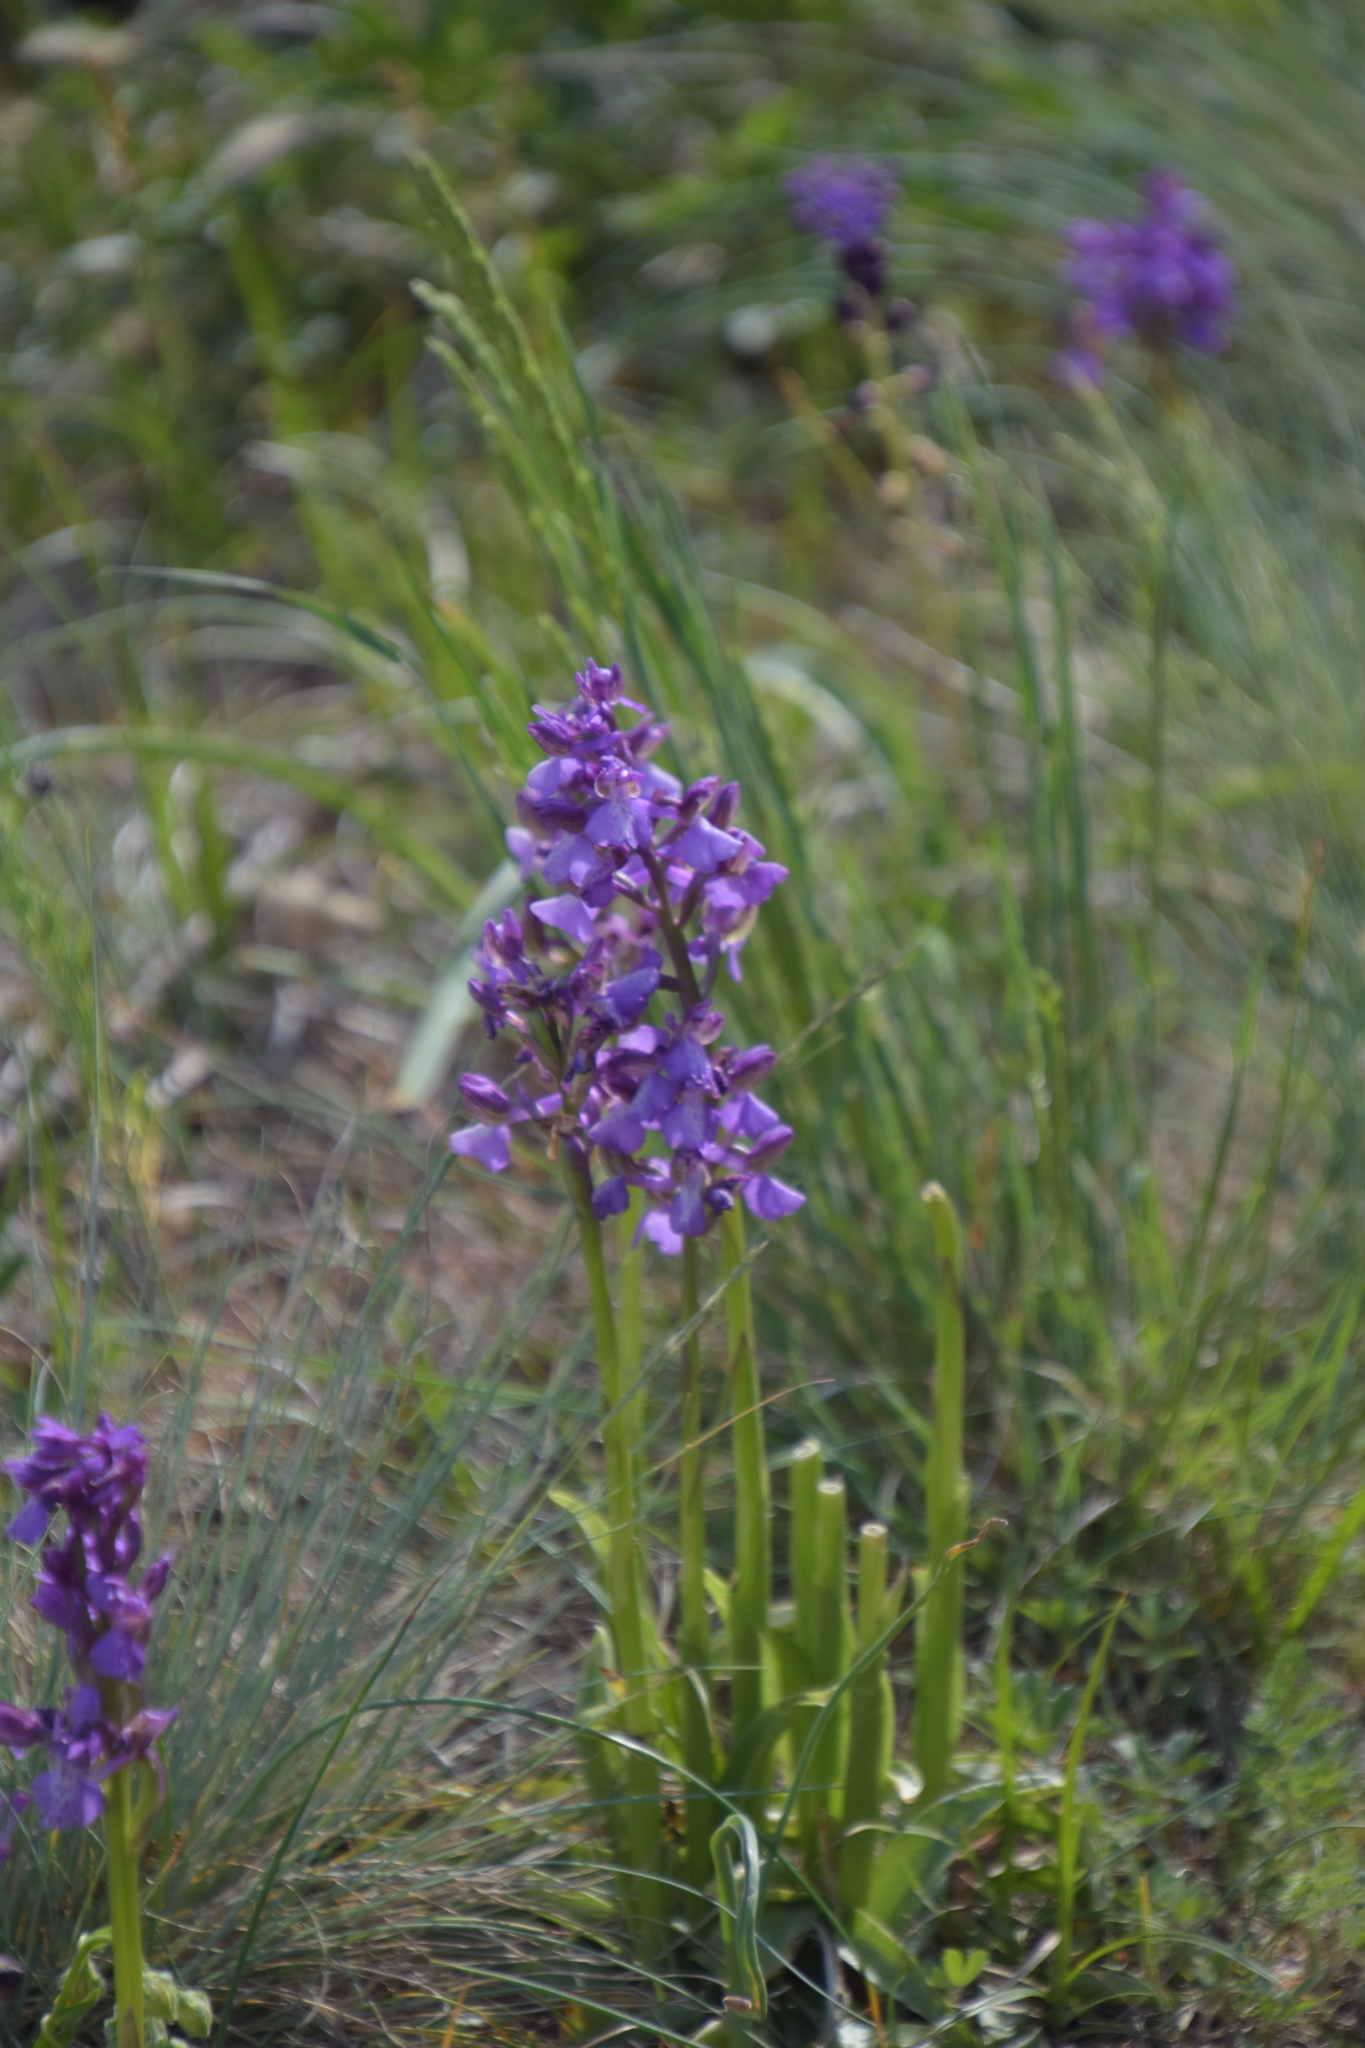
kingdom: Plantae
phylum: Tracheophyta
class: Liliopsida
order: Asparagales
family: Orchidaceae
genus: Anacamptis
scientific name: Anacamptis morio
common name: Green-winged orchid
